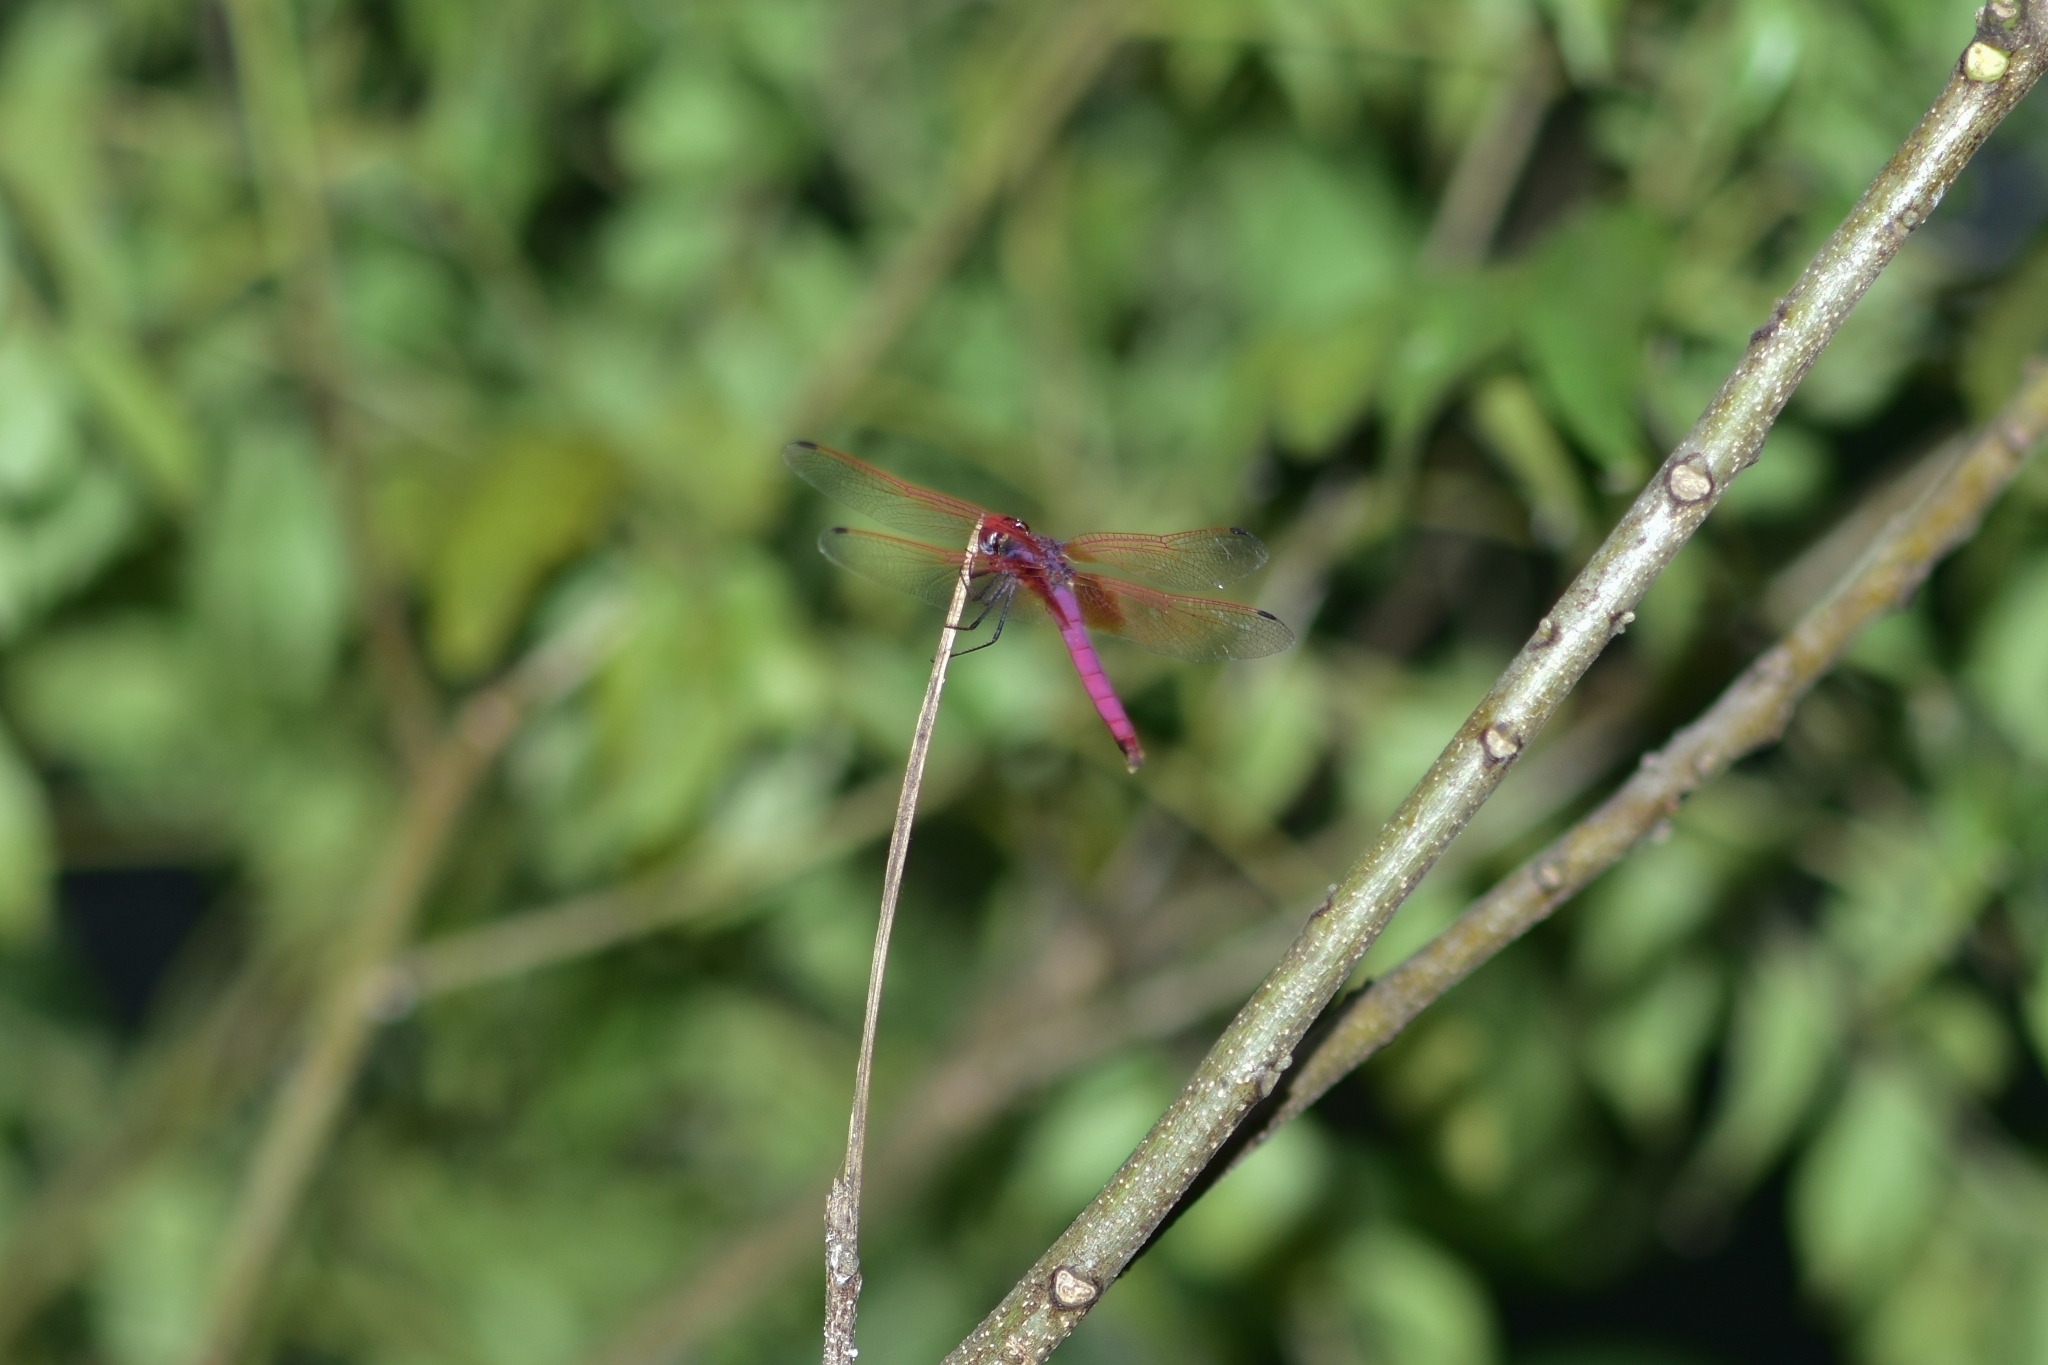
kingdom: Animalia
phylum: Arthropoda
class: Insecta
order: Odonata
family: Libellulidae
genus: Trithemis
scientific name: Trithemis aurora
